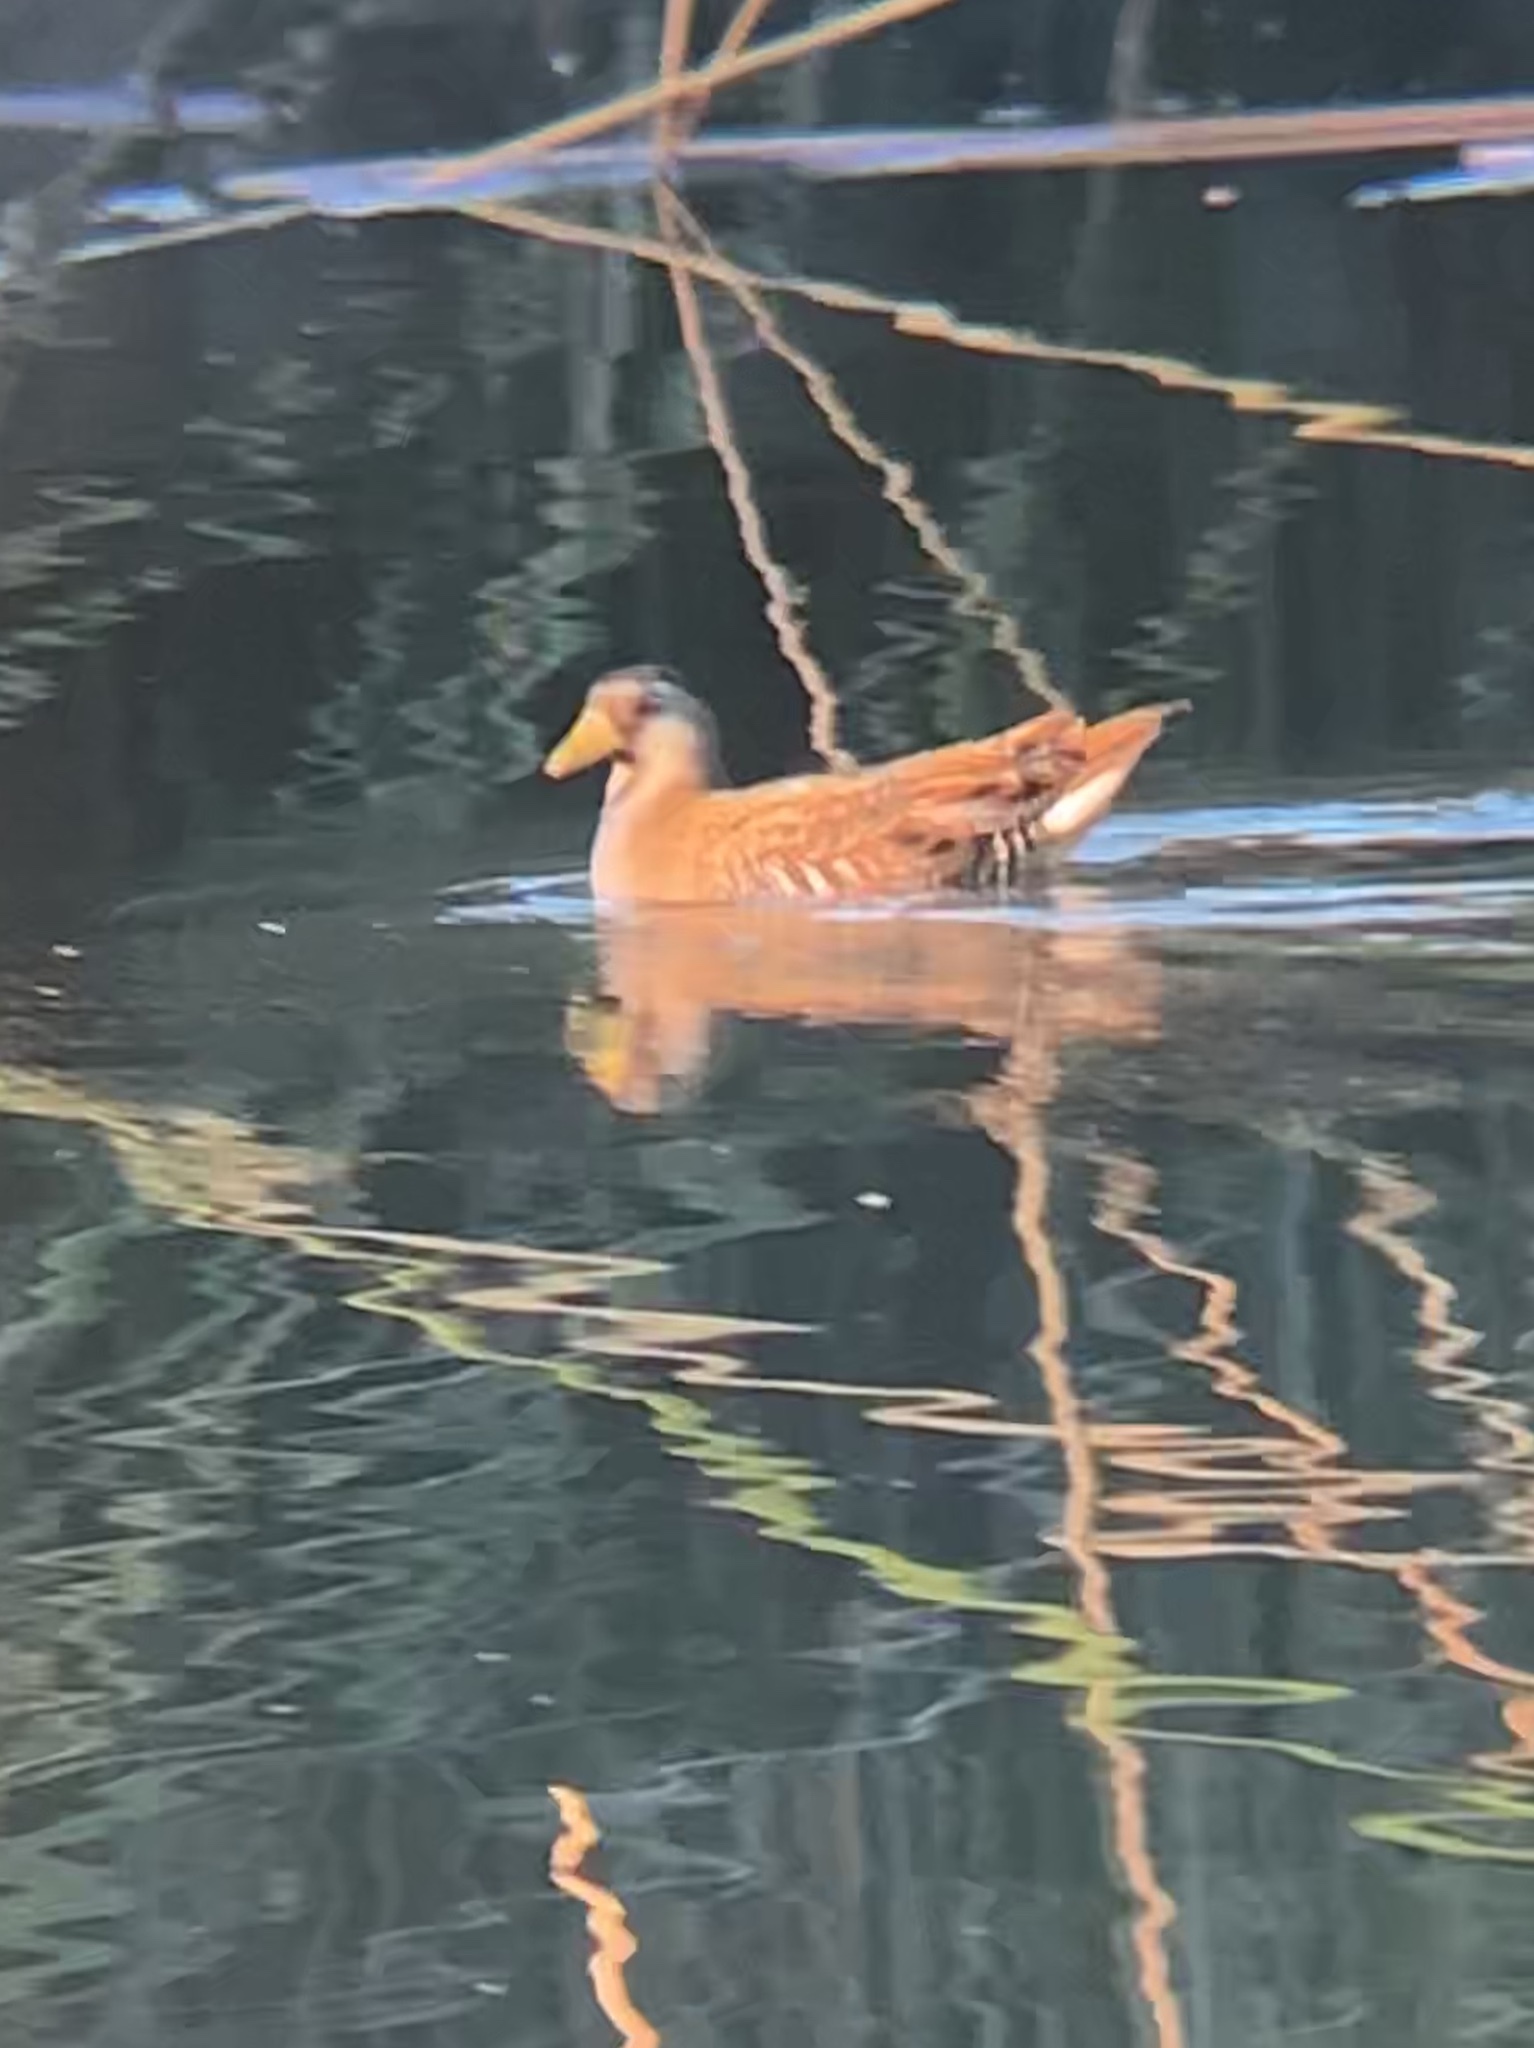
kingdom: Animalia
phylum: Chordata
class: Aves
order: Gruiformes
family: Rallidae
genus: Porzana
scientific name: Porzana carolina
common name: Sora
